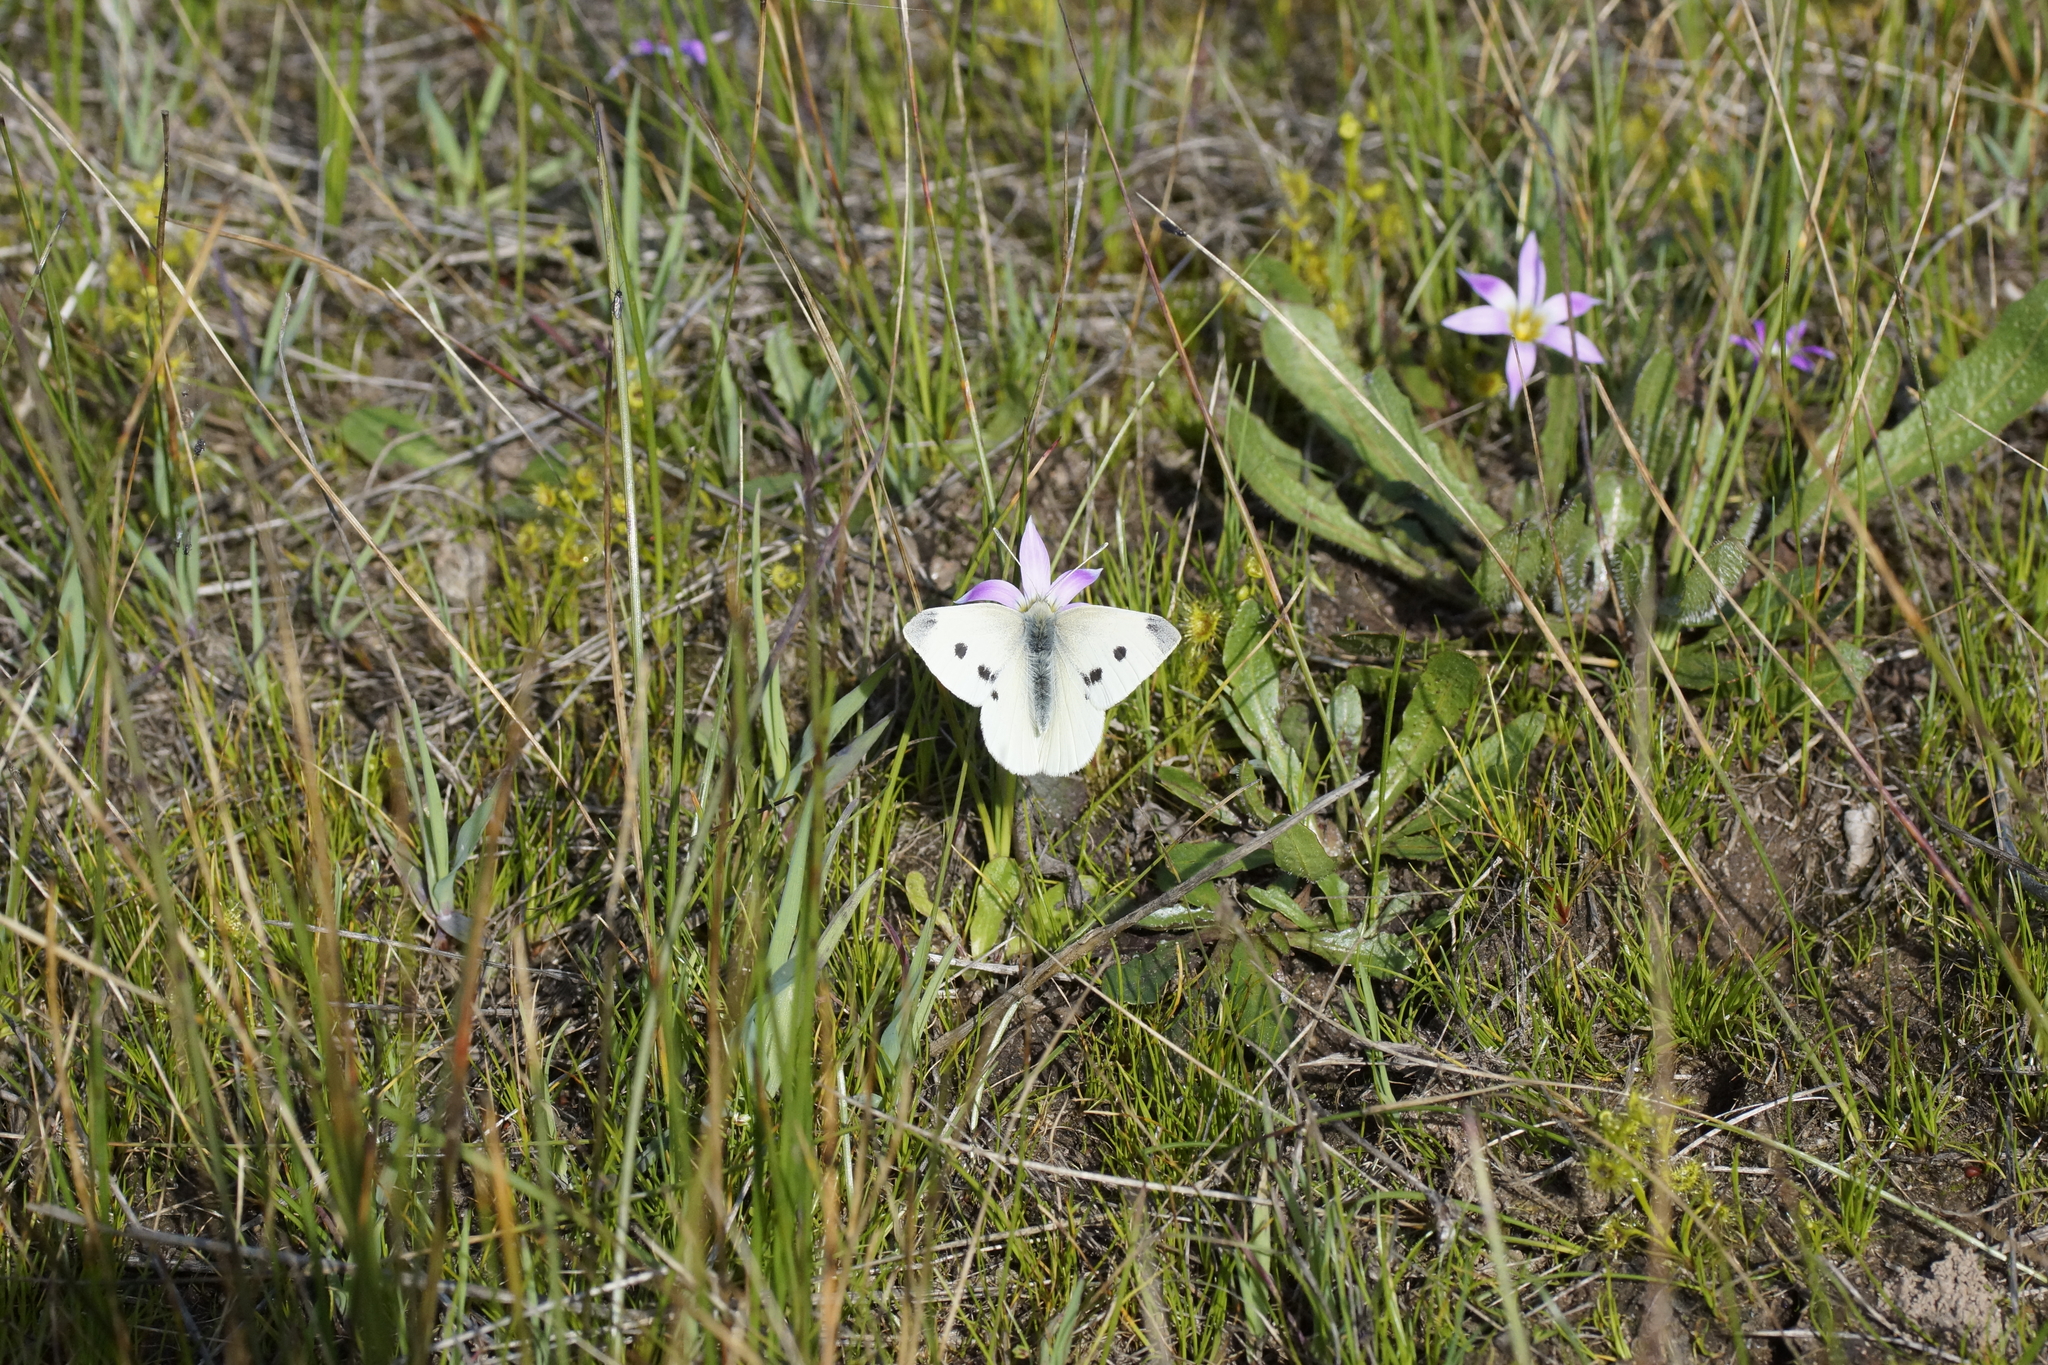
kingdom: Animalia
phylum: Arthropoda
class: Insecta
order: Lepidoptera
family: Pieridae
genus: Pieris
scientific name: Pieris rapae
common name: Small white
